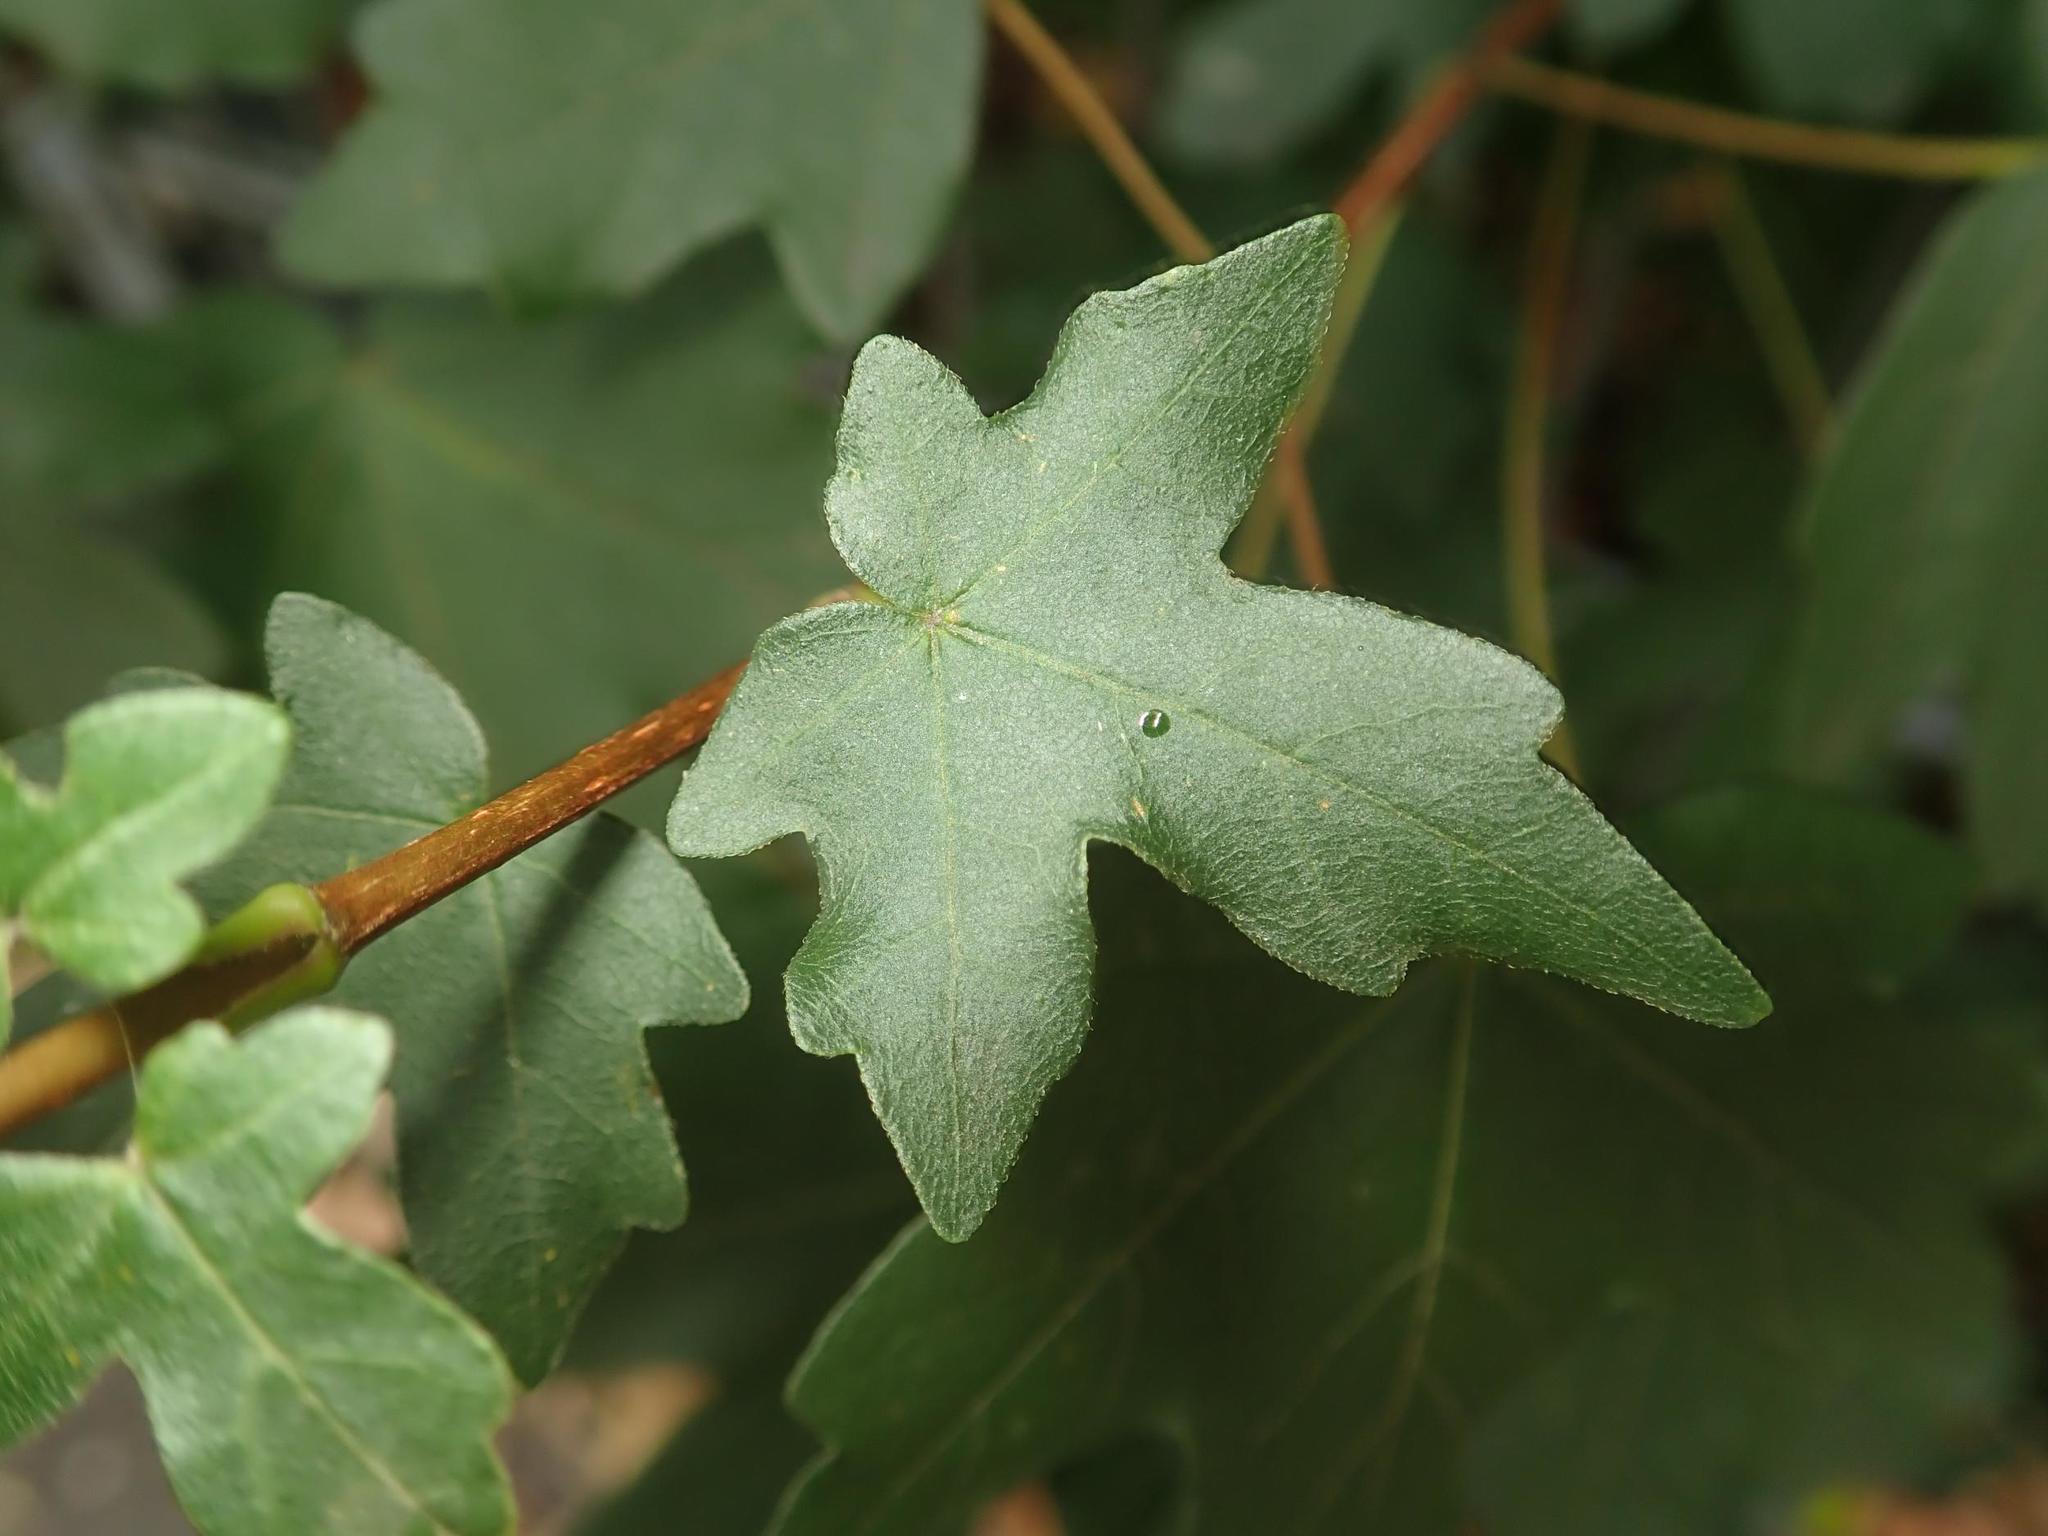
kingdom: Plantae
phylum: Tracheophyta
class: Magnoliopsida
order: Sapindales
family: Sapindaceae
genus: Acer
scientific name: Acer campestre
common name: Field maple
